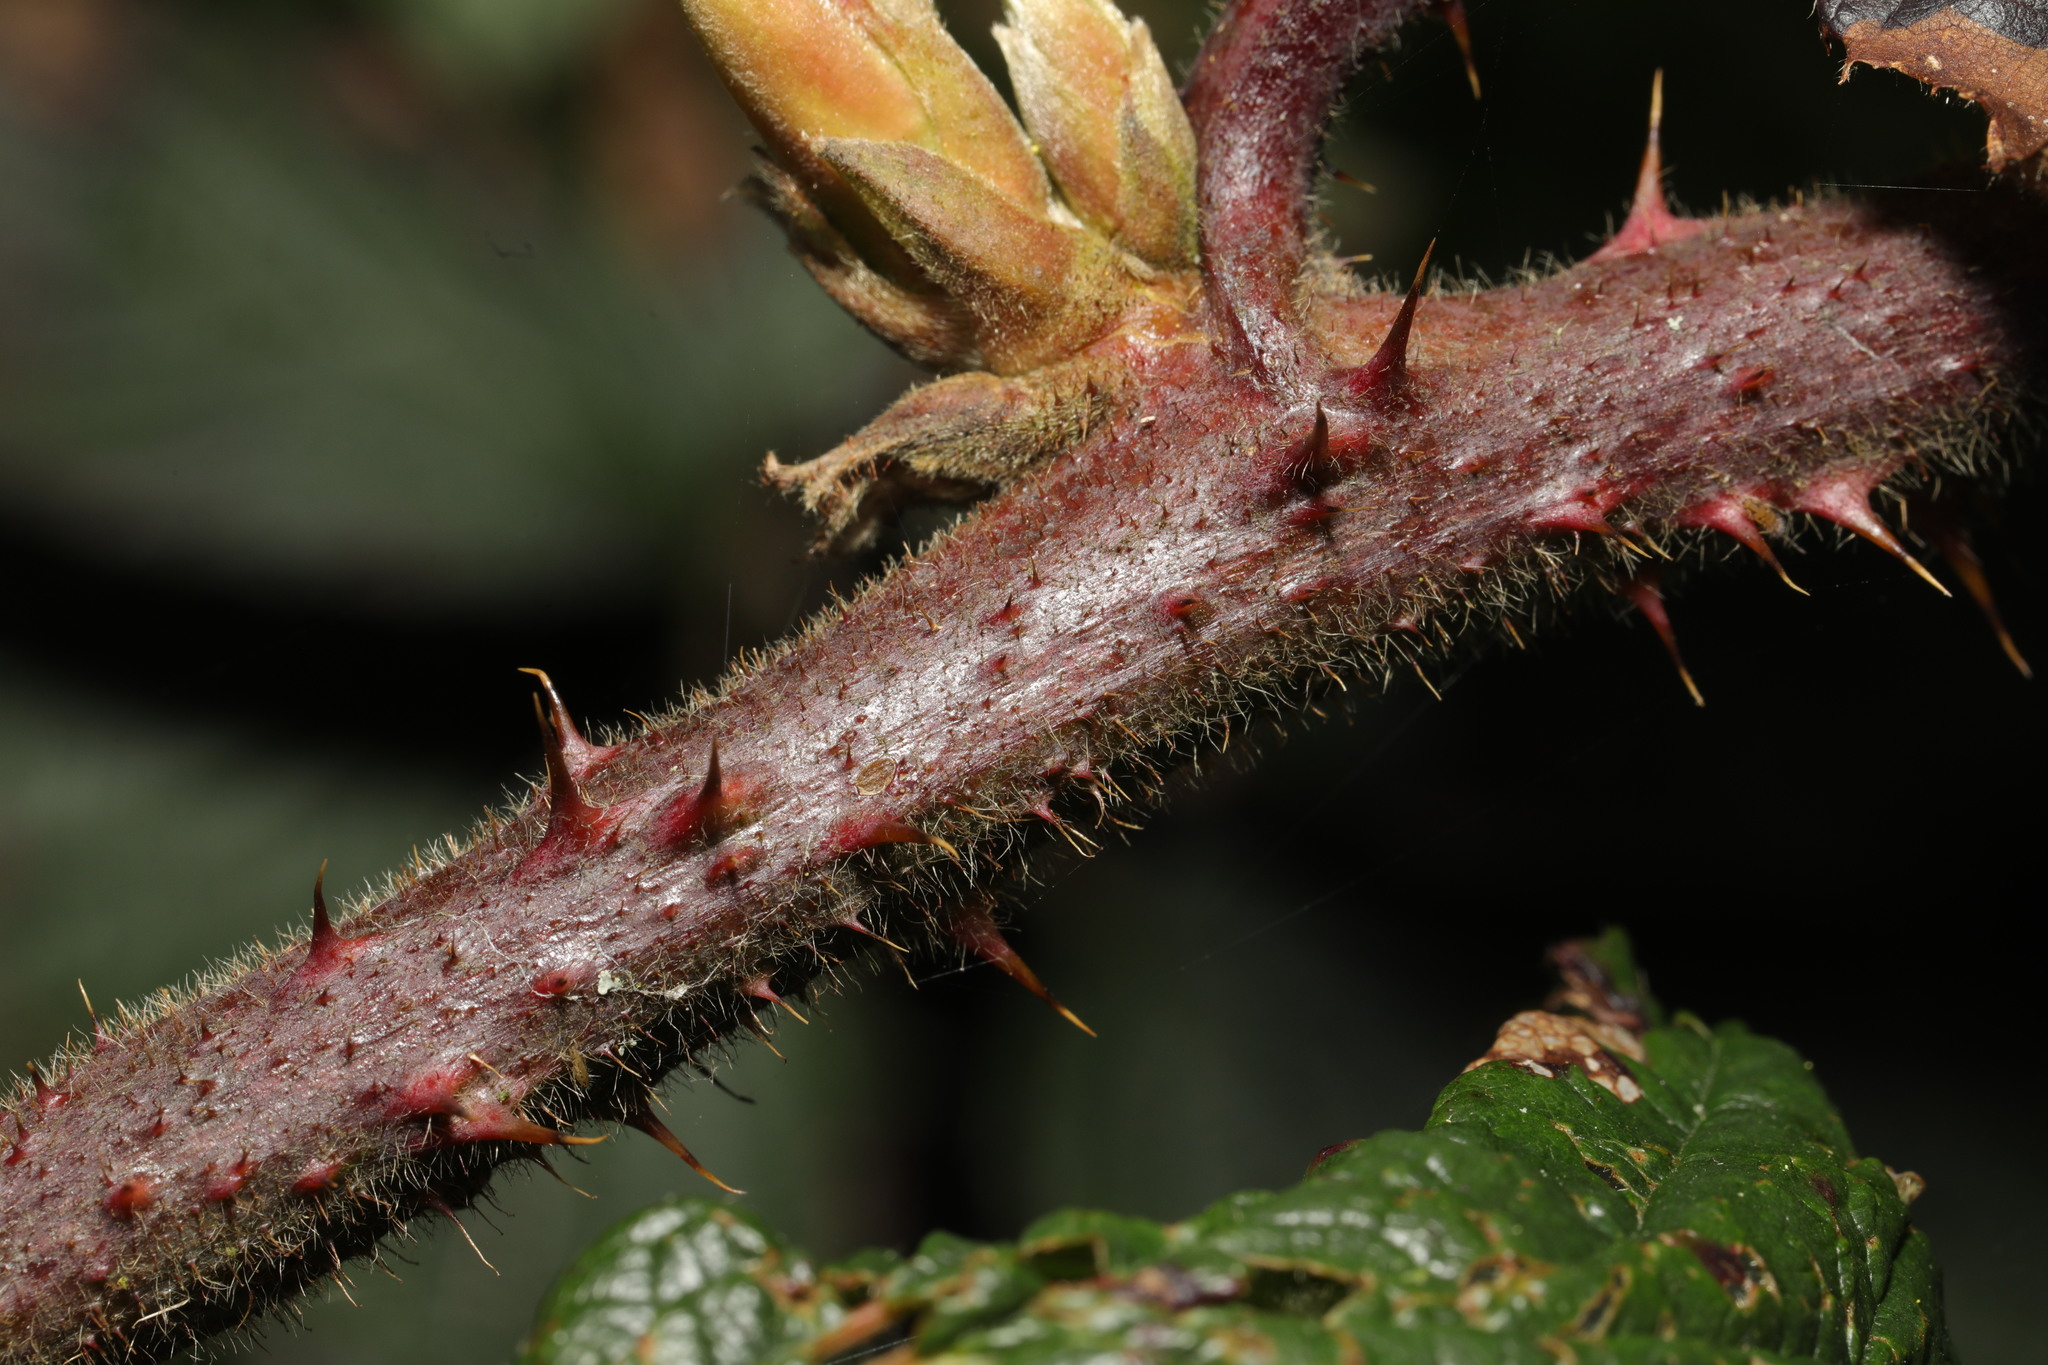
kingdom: Plantae
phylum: Tracheophyta
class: Magnoliopsida
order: Rosales
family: Rosaceae
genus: Rubus
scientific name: Rubus fruticosus
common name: Blackberry, bramble
